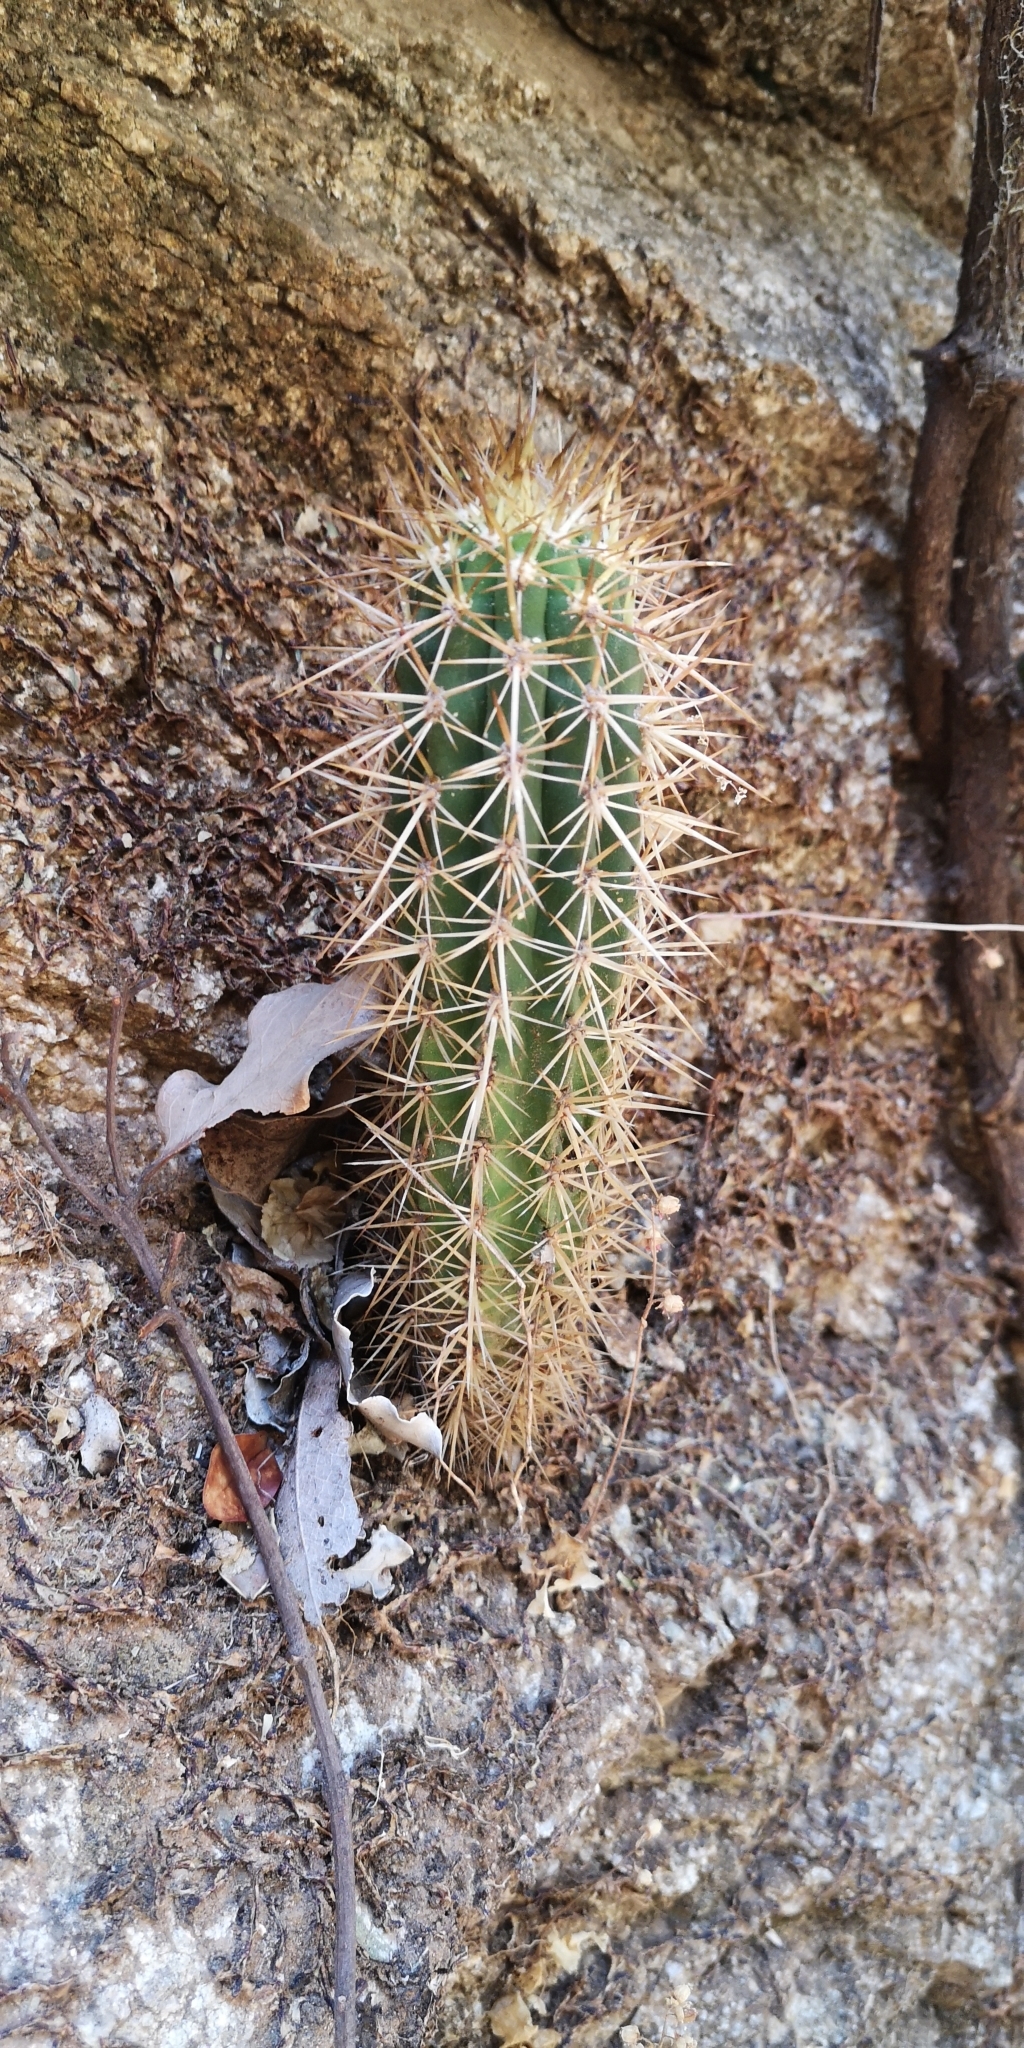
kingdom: Plantae
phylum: Tracheophyta
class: Magnoliopsida
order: Caryophyllales
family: Cactaceae
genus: Leucostele
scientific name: Leucostele chiloensis
